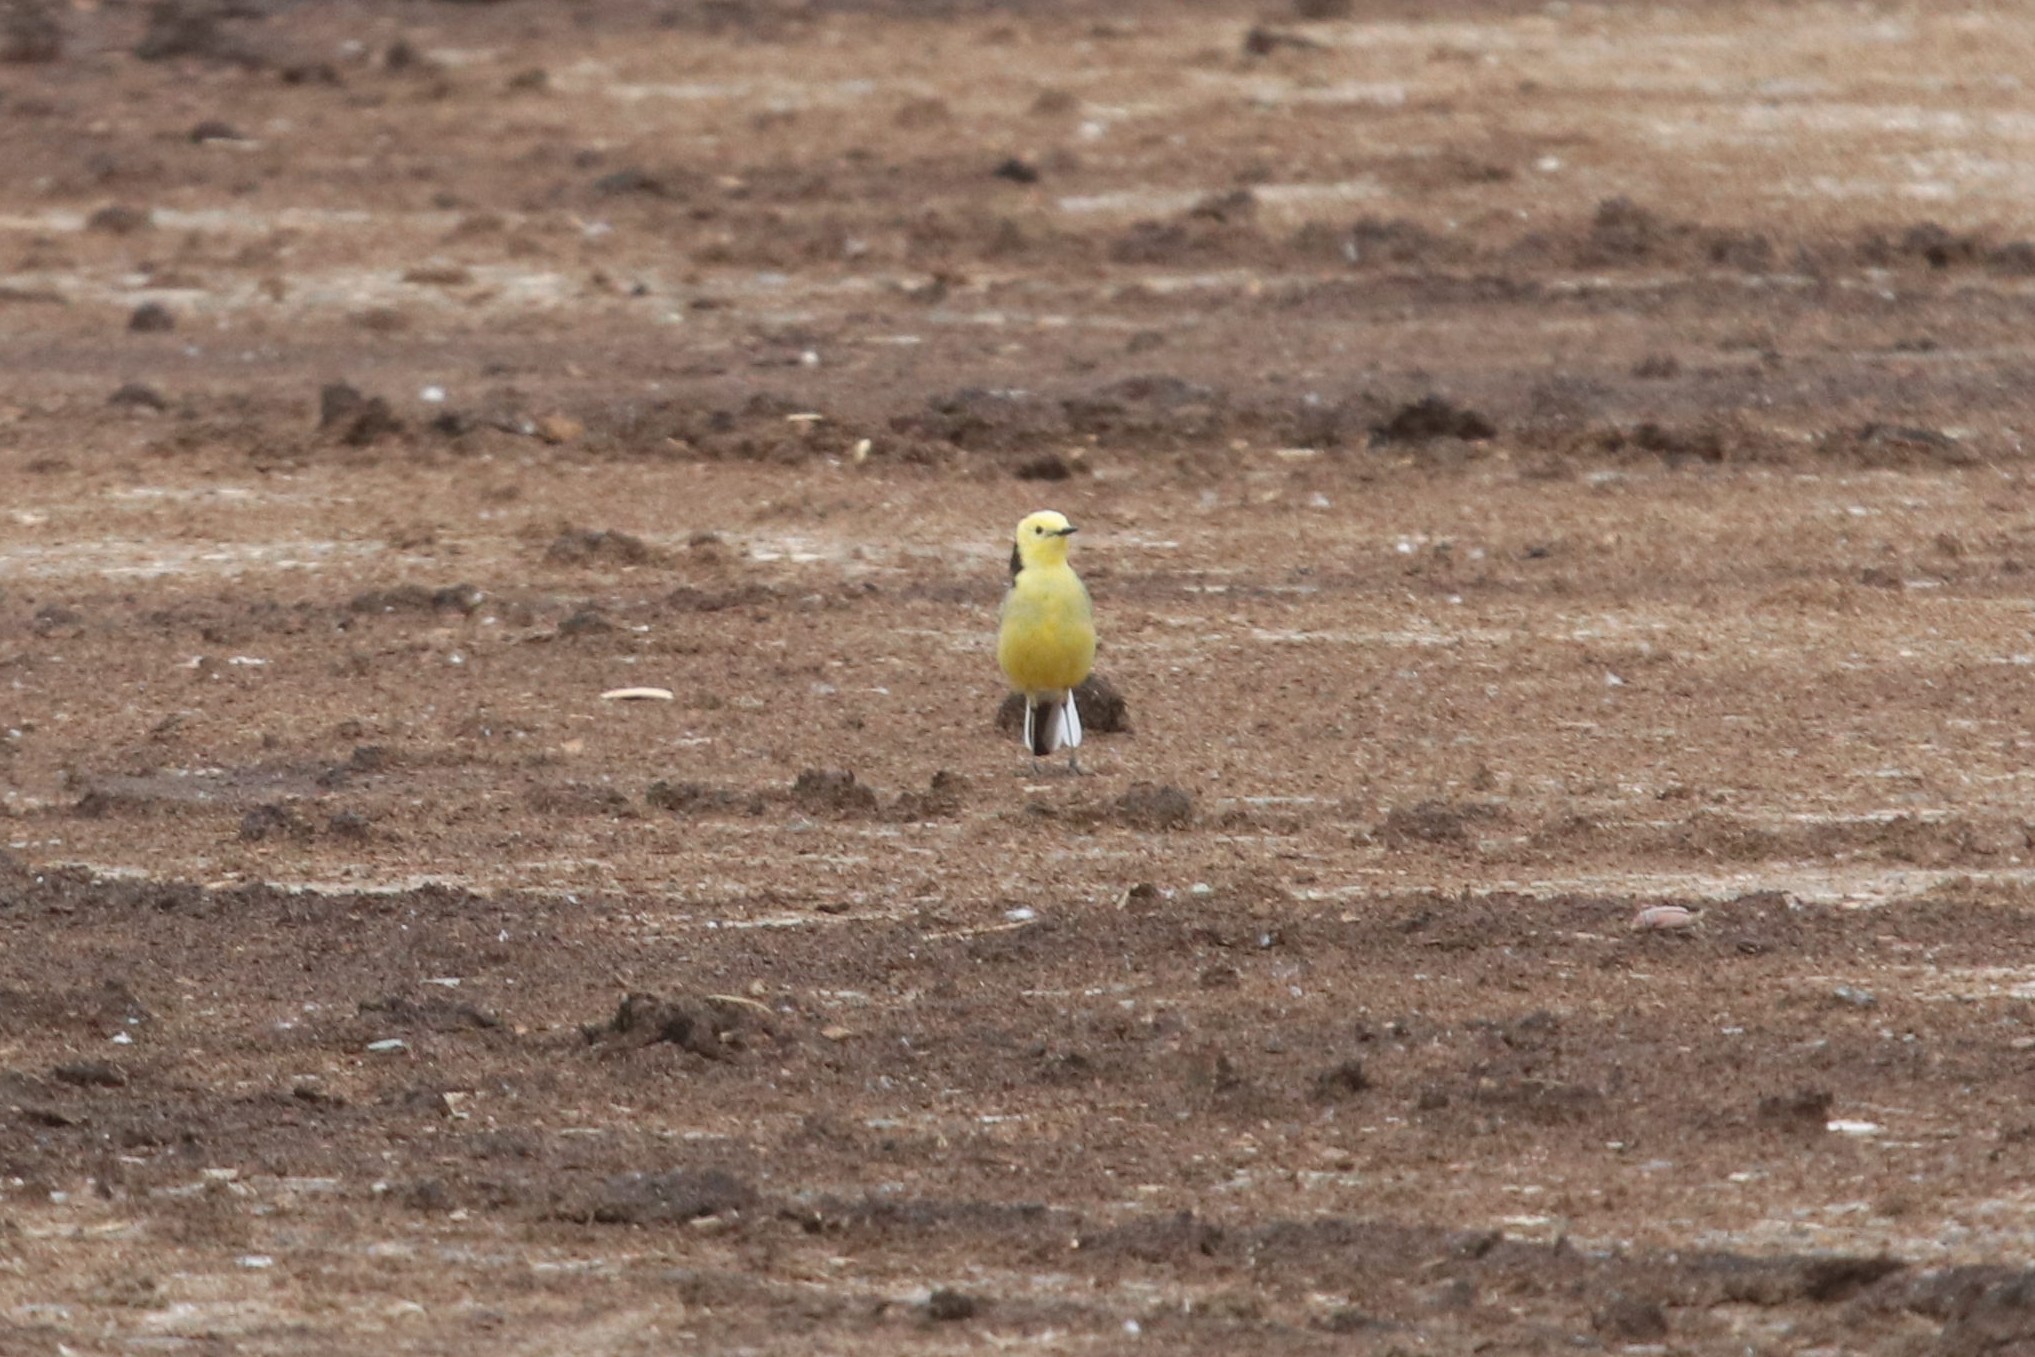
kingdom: Animalia
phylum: Chordata
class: Aves
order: Passeriformes
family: Motacillidae
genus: Motacilla
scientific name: Motacilla citreola
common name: Citrine wagtail
